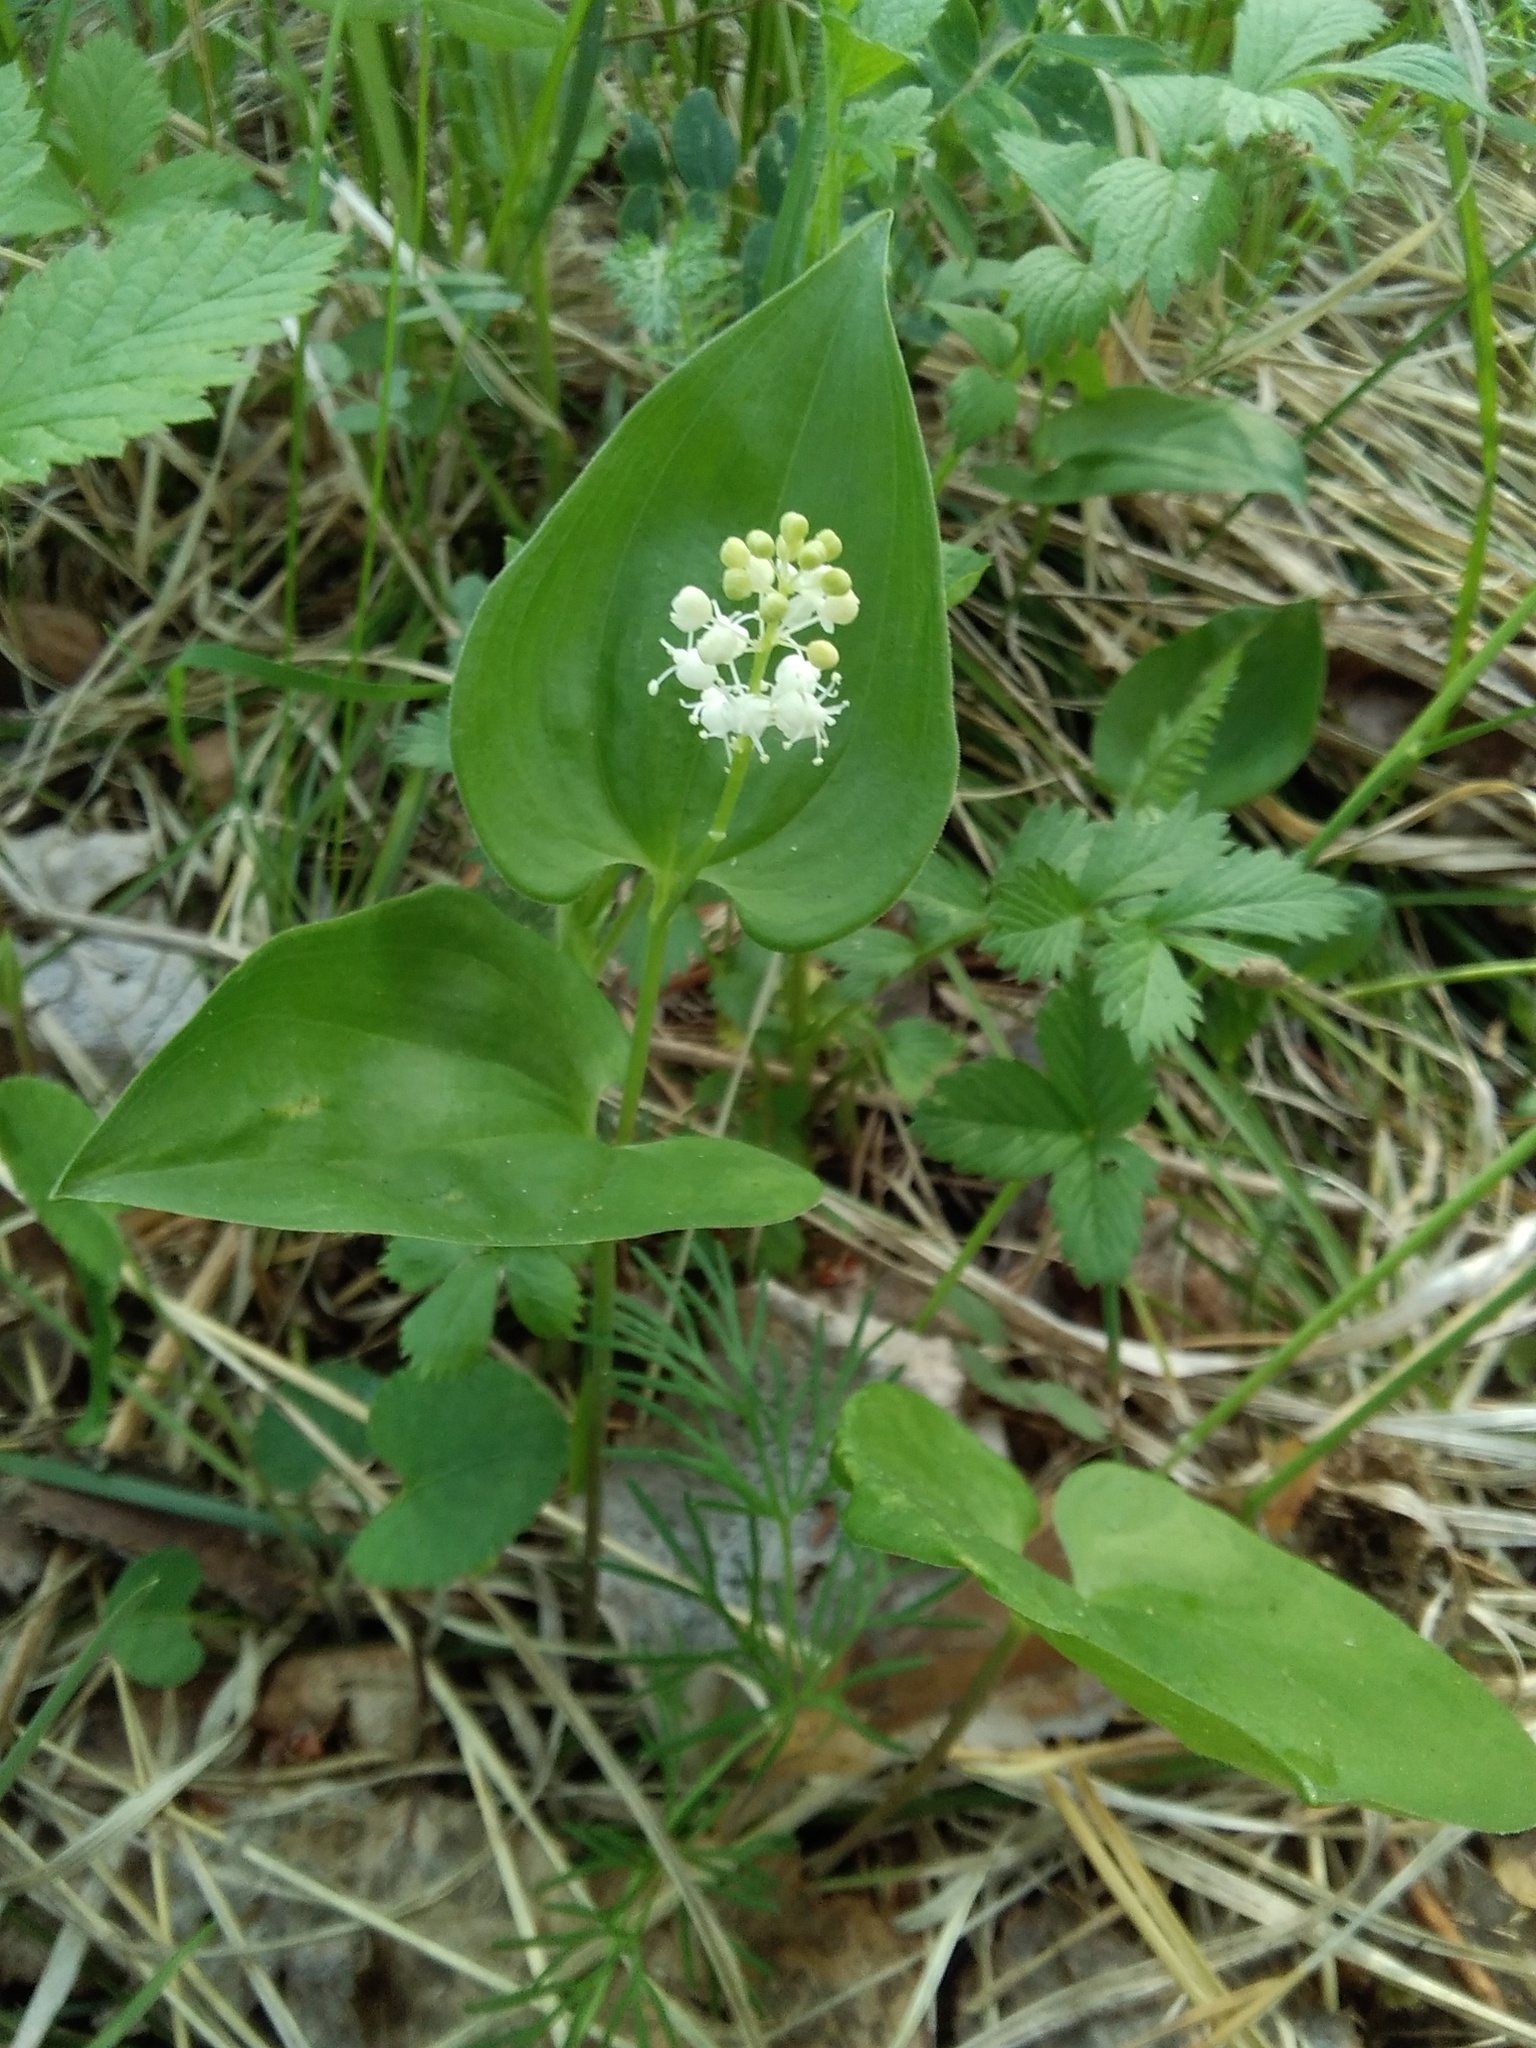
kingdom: Plantae
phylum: Tracheophyta
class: Liliopsida
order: Asparagales
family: Asparagaceae
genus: Maianthemum
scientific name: Maianthemum bifolium
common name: May lily
